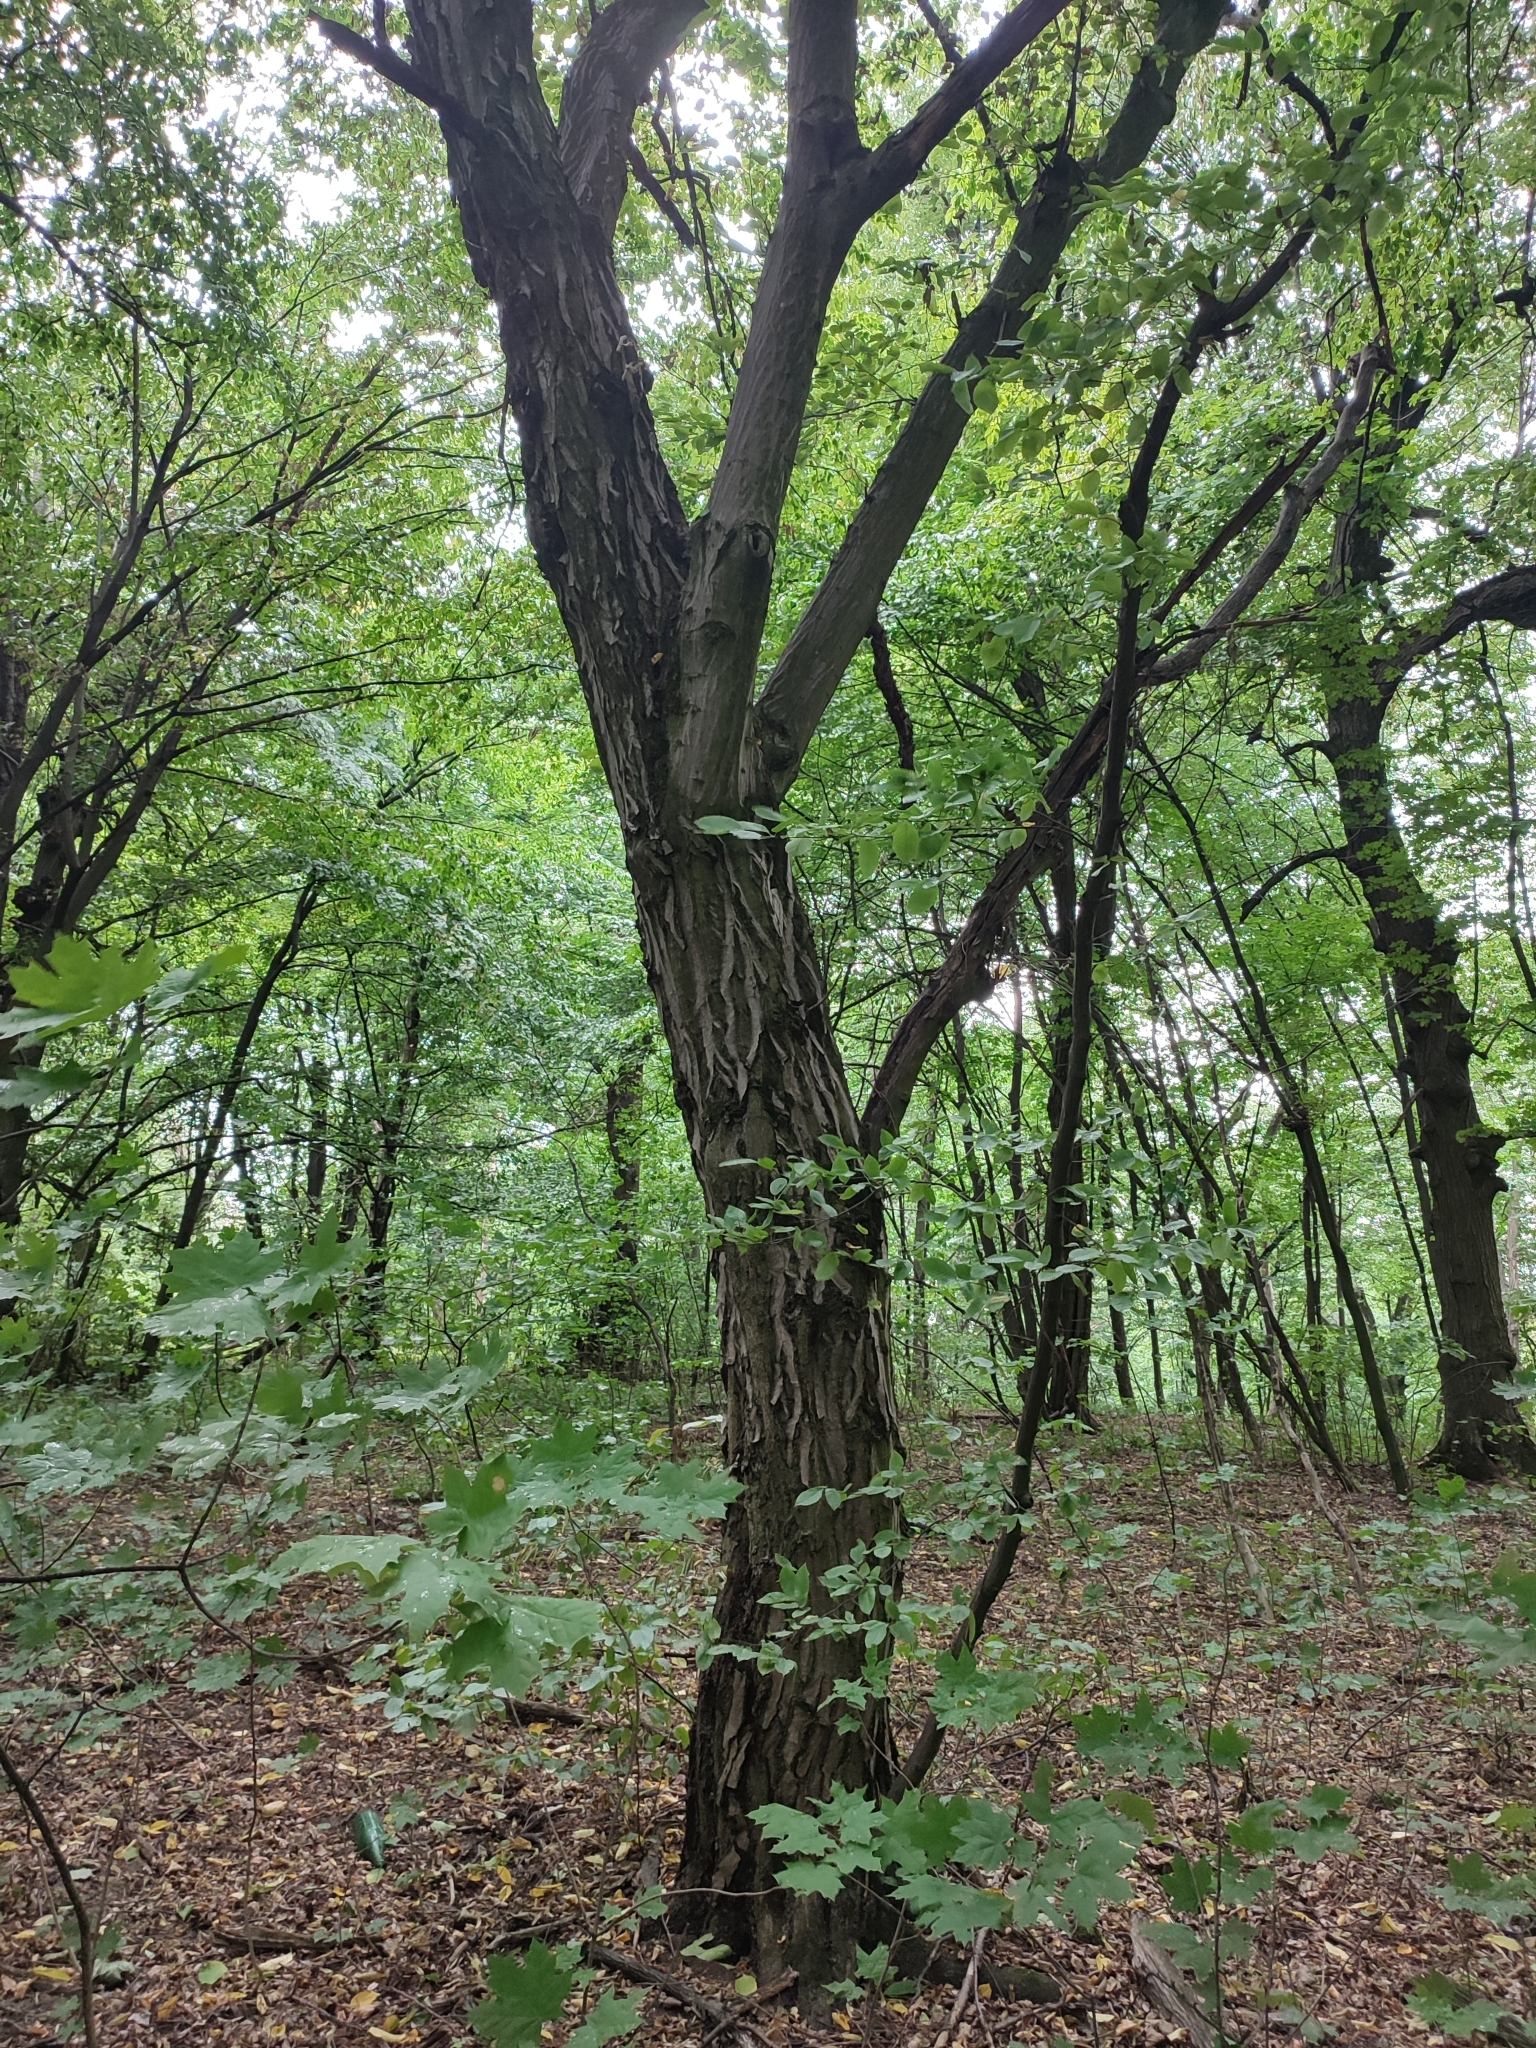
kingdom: Plantae
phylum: Tracheophyta
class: Magnoliopsida
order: Fagales
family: Betulaceae
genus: Carpinus
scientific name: Carpinus betulus
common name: Hornbeam
